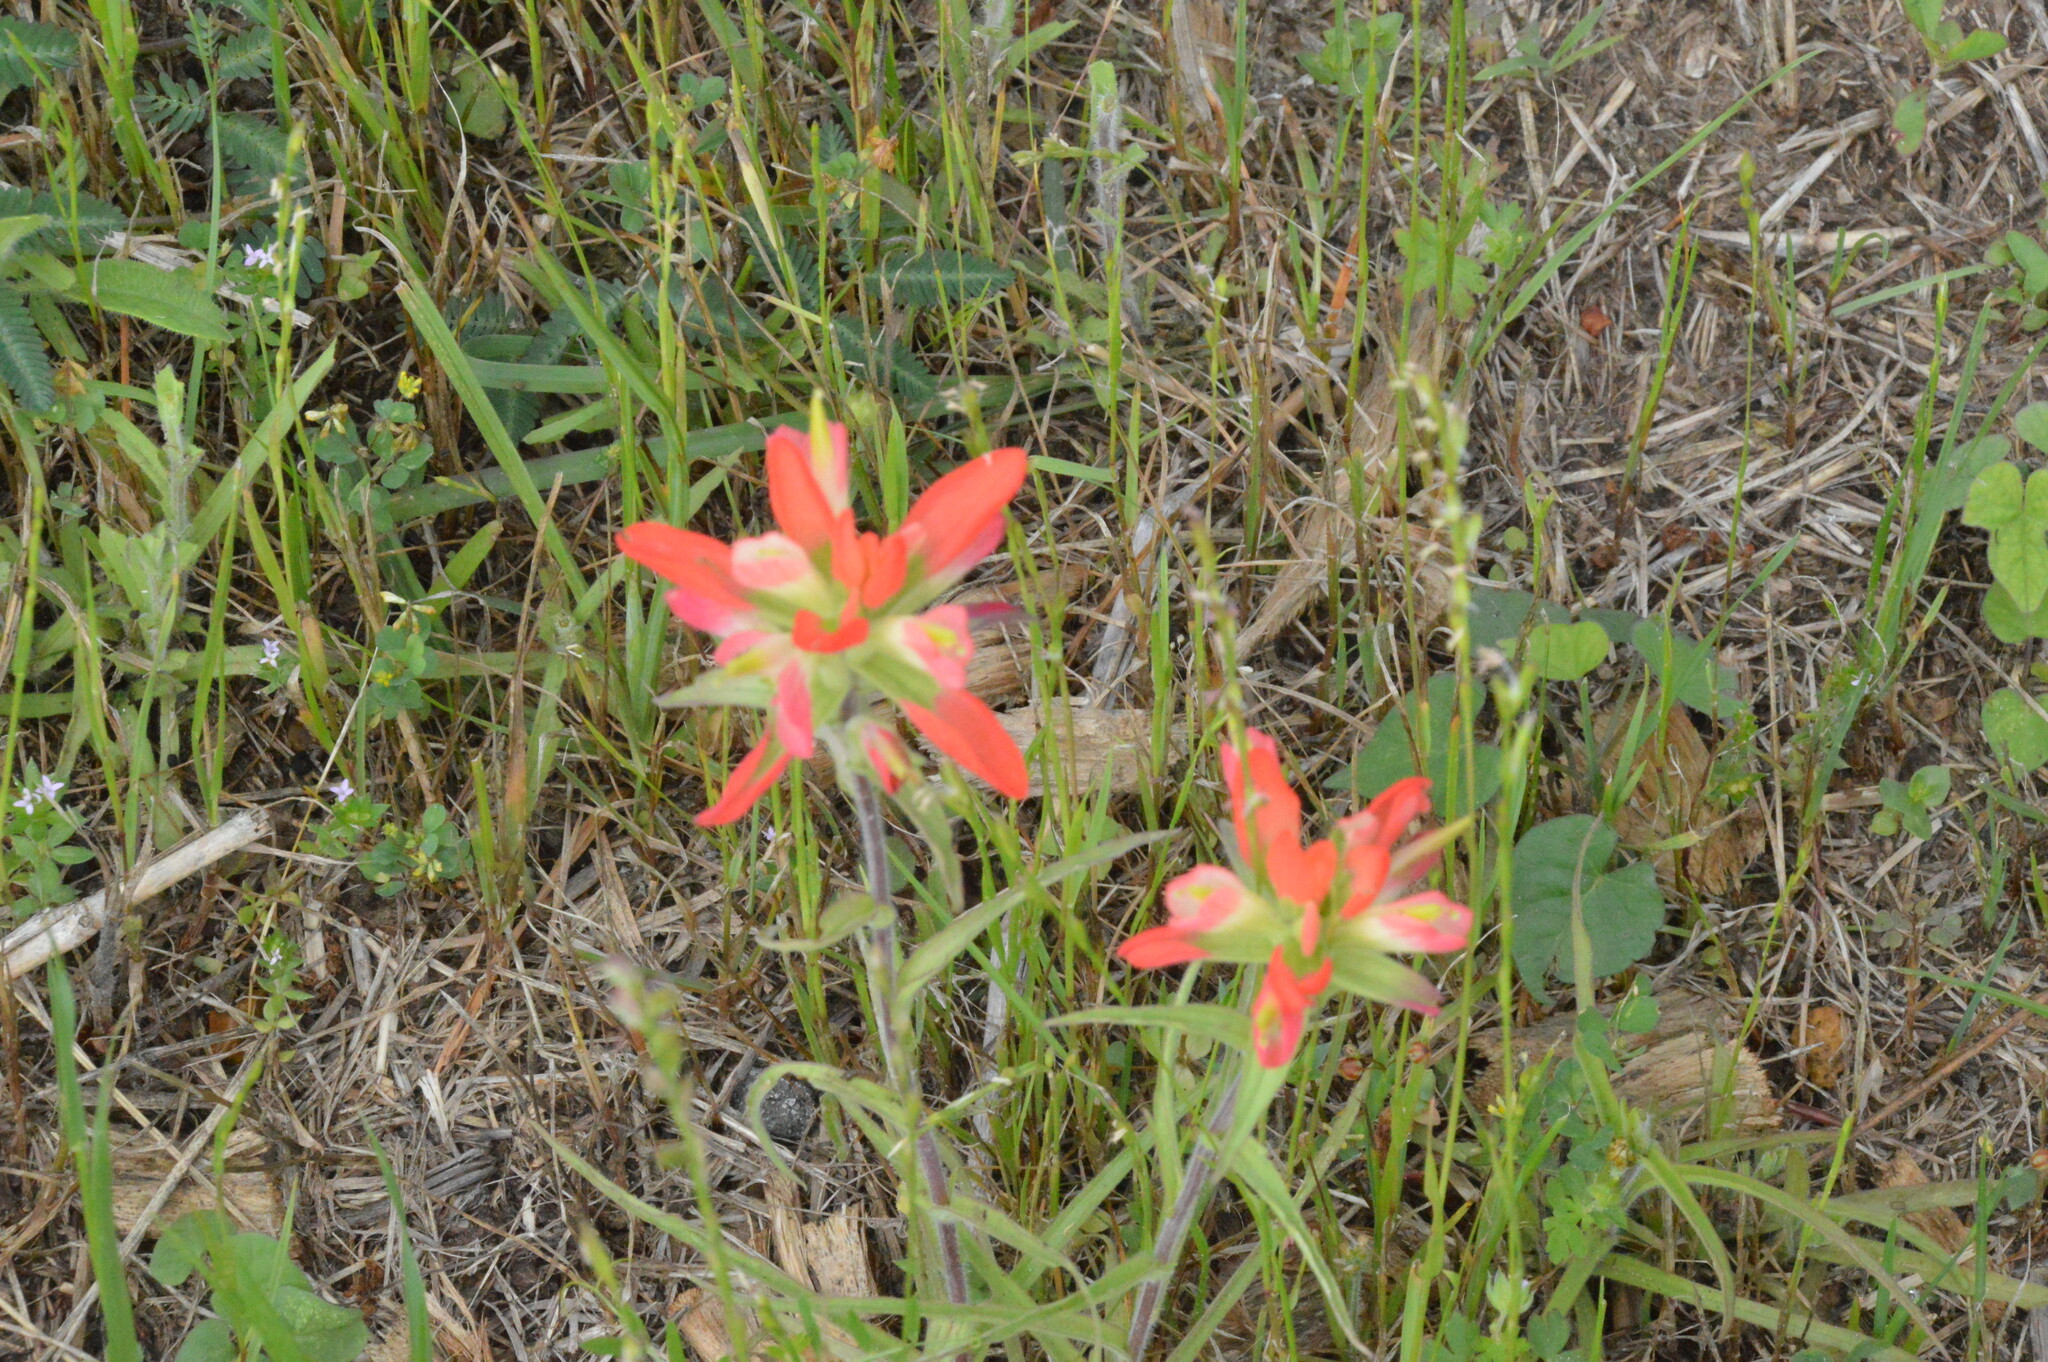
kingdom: Plantae
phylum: Tracheophyta
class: Magnoliopsida
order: Lamiales
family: Orobanchaceae
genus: Castilleja
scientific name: Castilleja indivisa
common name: Texas paintbrush
